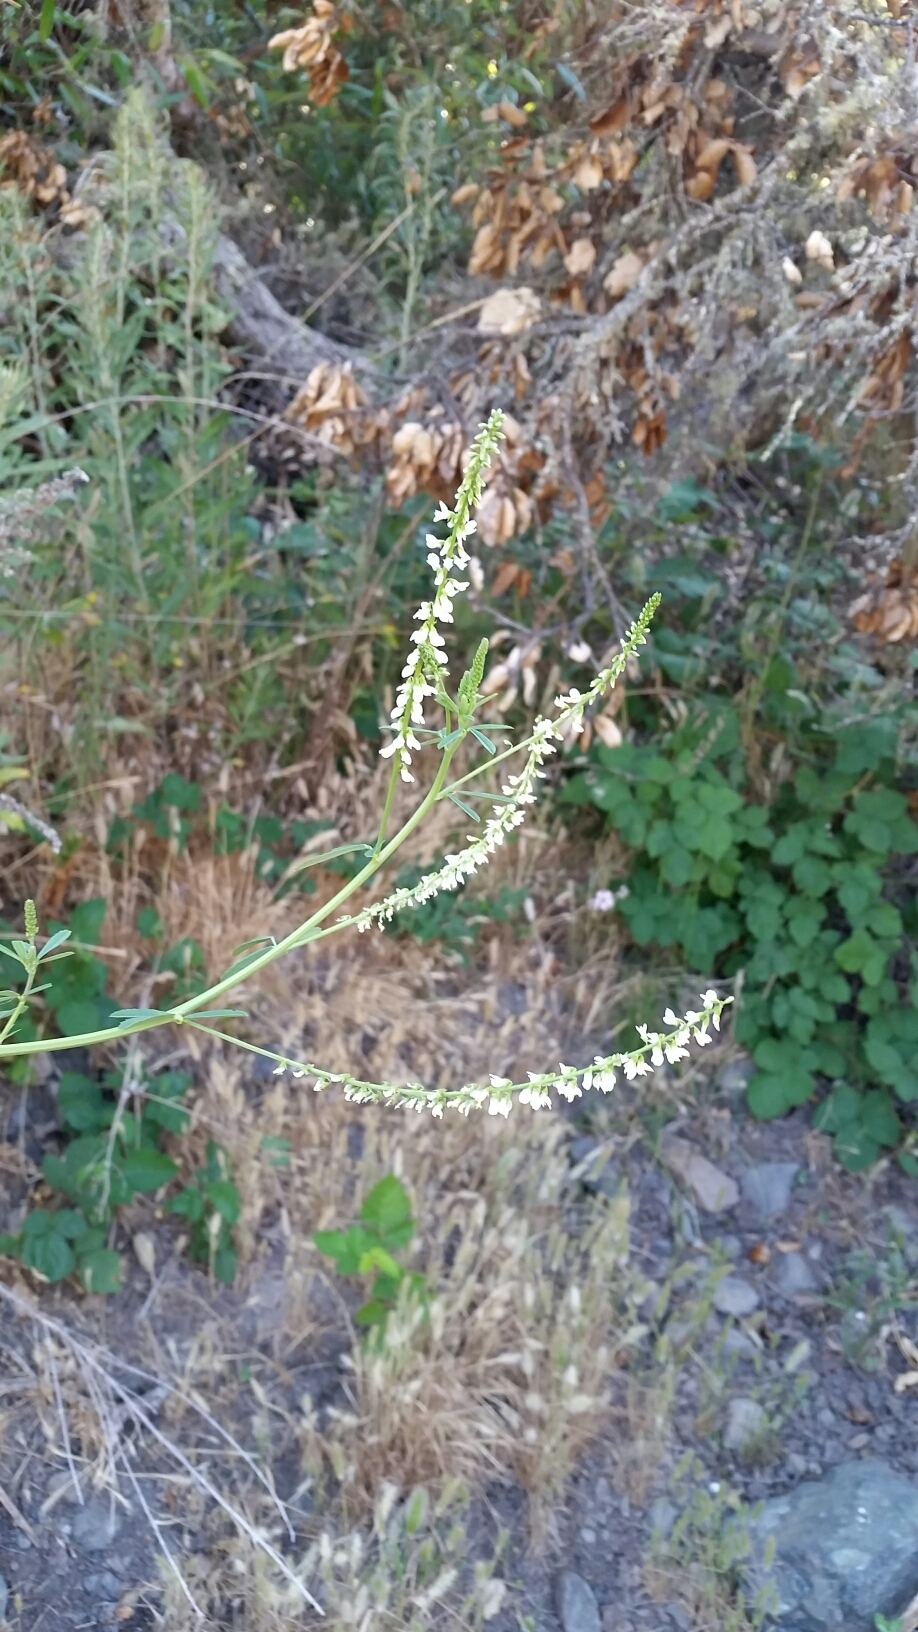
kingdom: Plantae
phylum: Tracheophyta
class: Magnoliopsida
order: Fabales
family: Fabaceae
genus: Melilotus
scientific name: Melilotus albus
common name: White melilot
